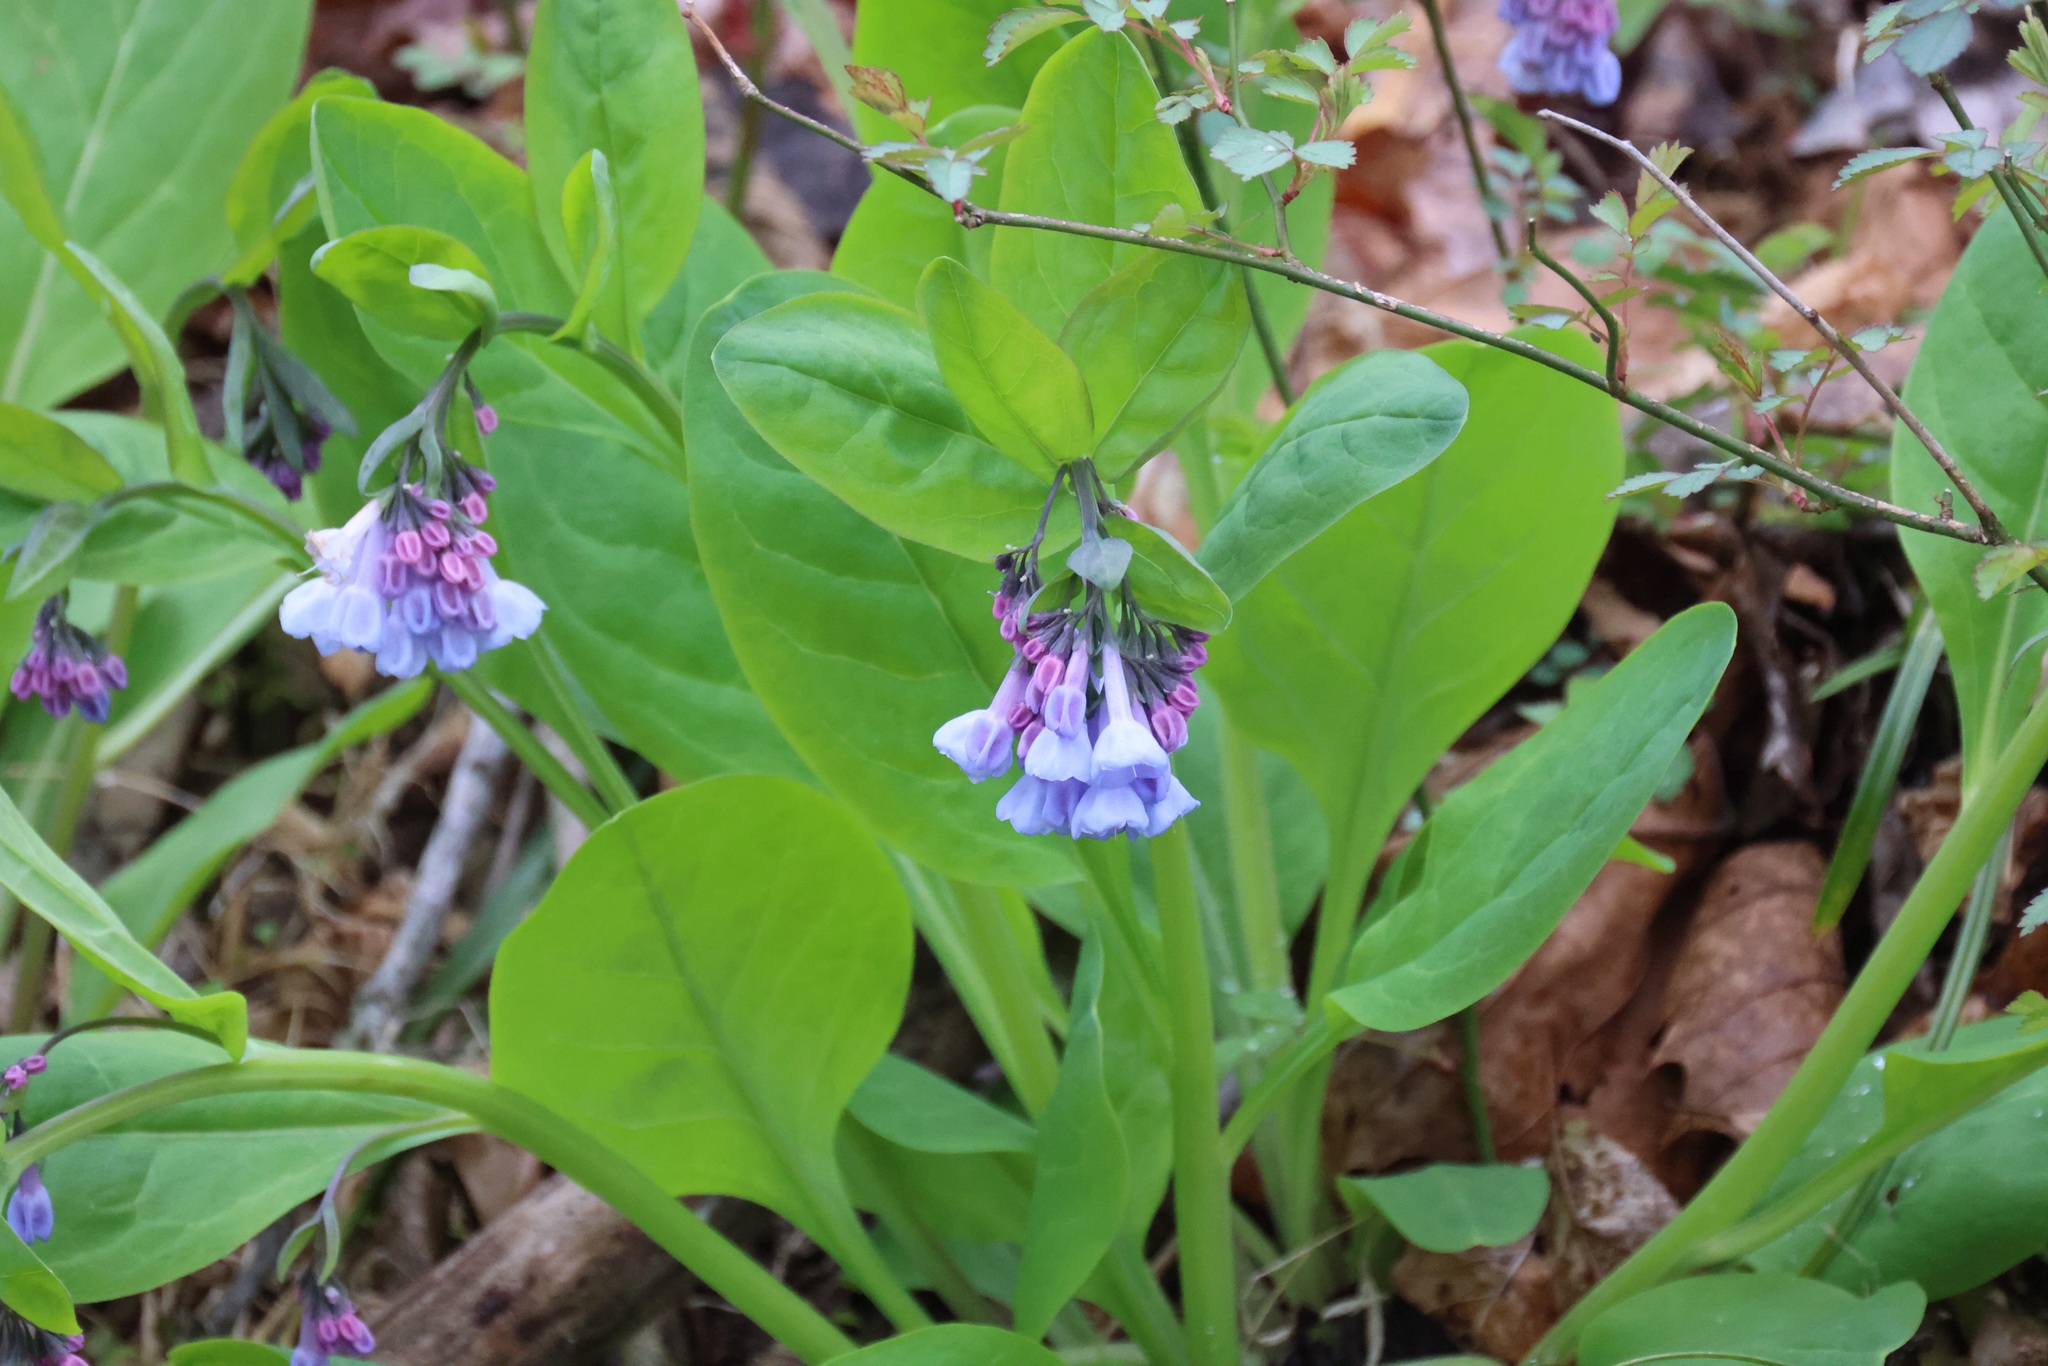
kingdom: Plantae
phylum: Tracheophyta
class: Magnoliopsida
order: Boraginales
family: Boraginaceae
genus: Mertensia
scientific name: Mertensia virginica
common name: Virginia bluebells
